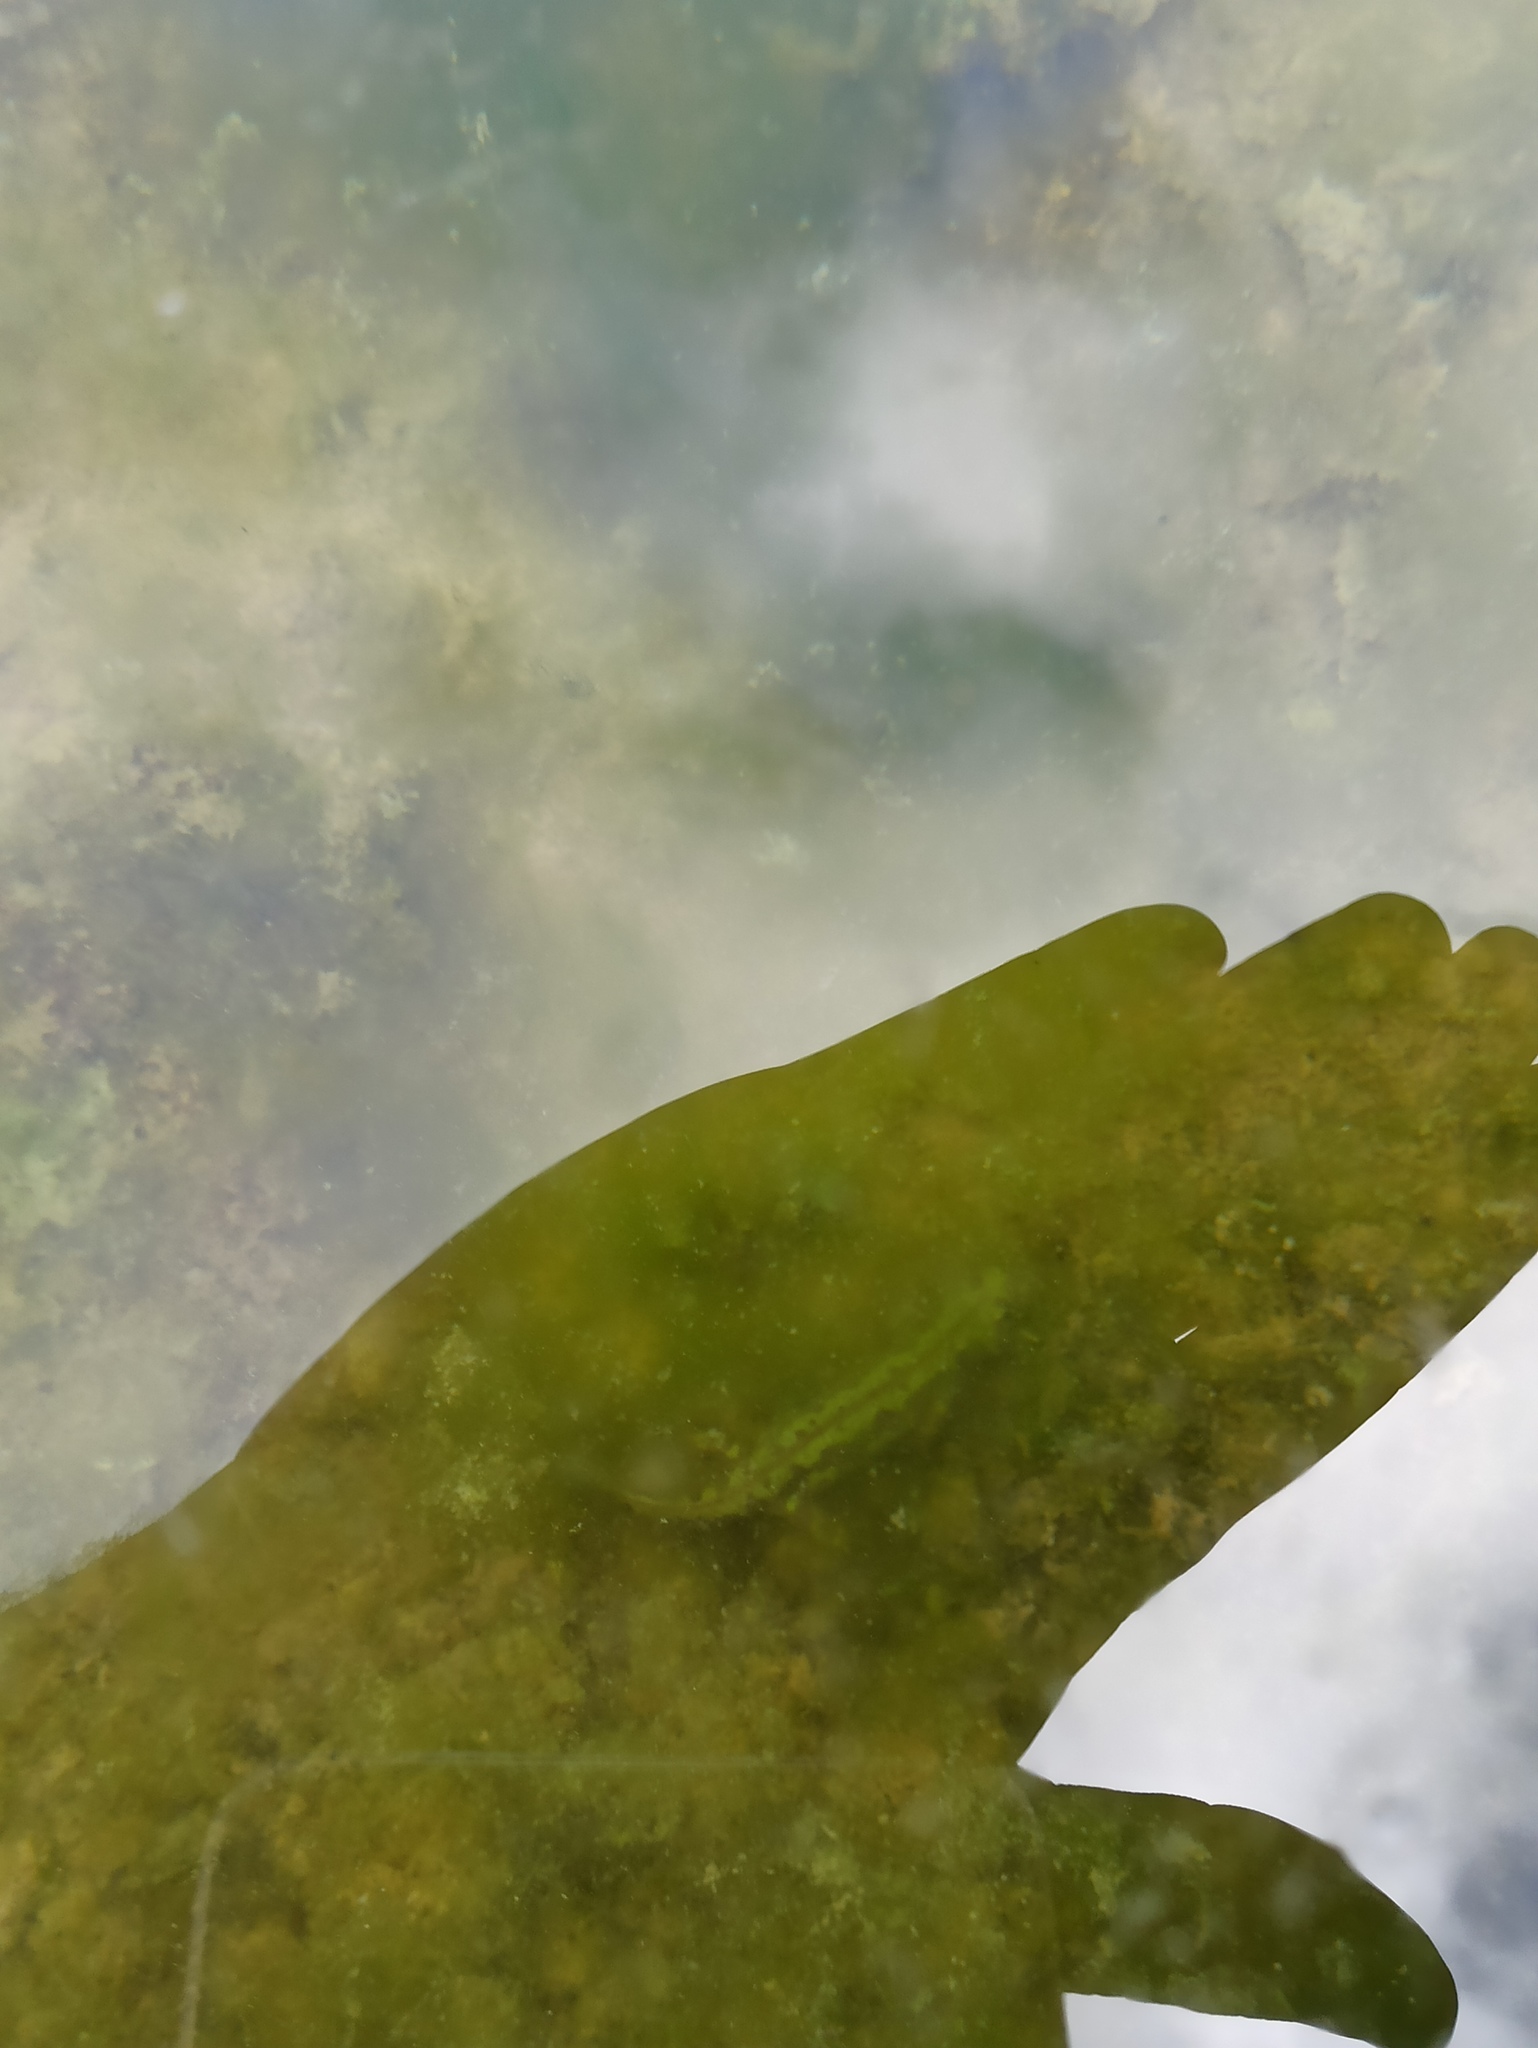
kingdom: Animalia
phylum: Chordata
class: Amphibia
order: Caudata
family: Salamandridae
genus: Triturus
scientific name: Triturus marmoratus
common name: Marbled newt
